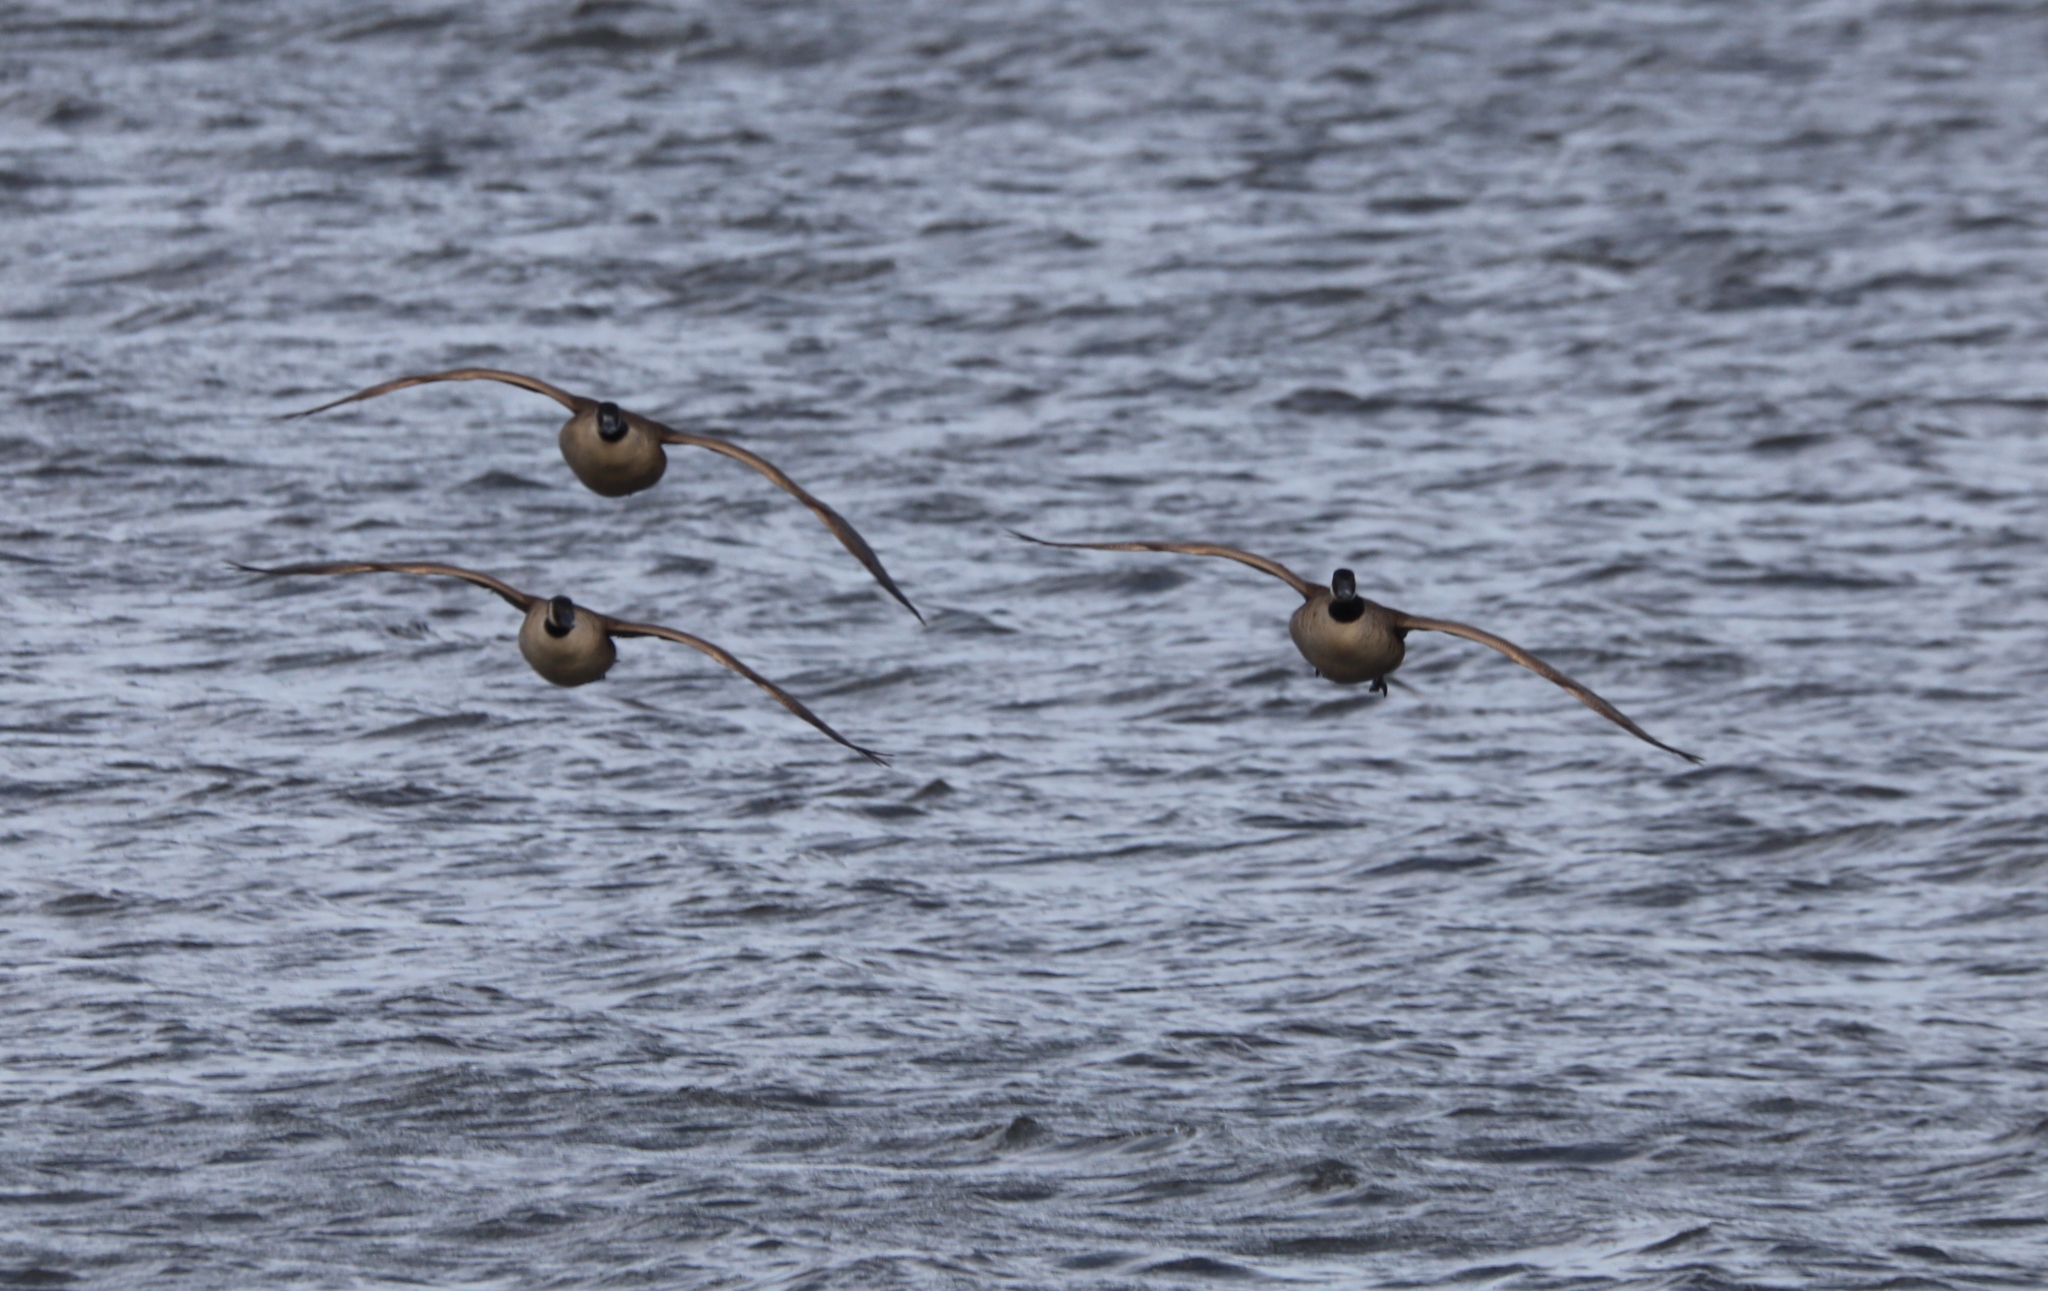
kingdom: Animalia
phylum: Chordata
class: Aves
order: Anseriformes
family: Anatidae
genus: Branta
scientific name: Branta canadensis
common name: Canada goose
